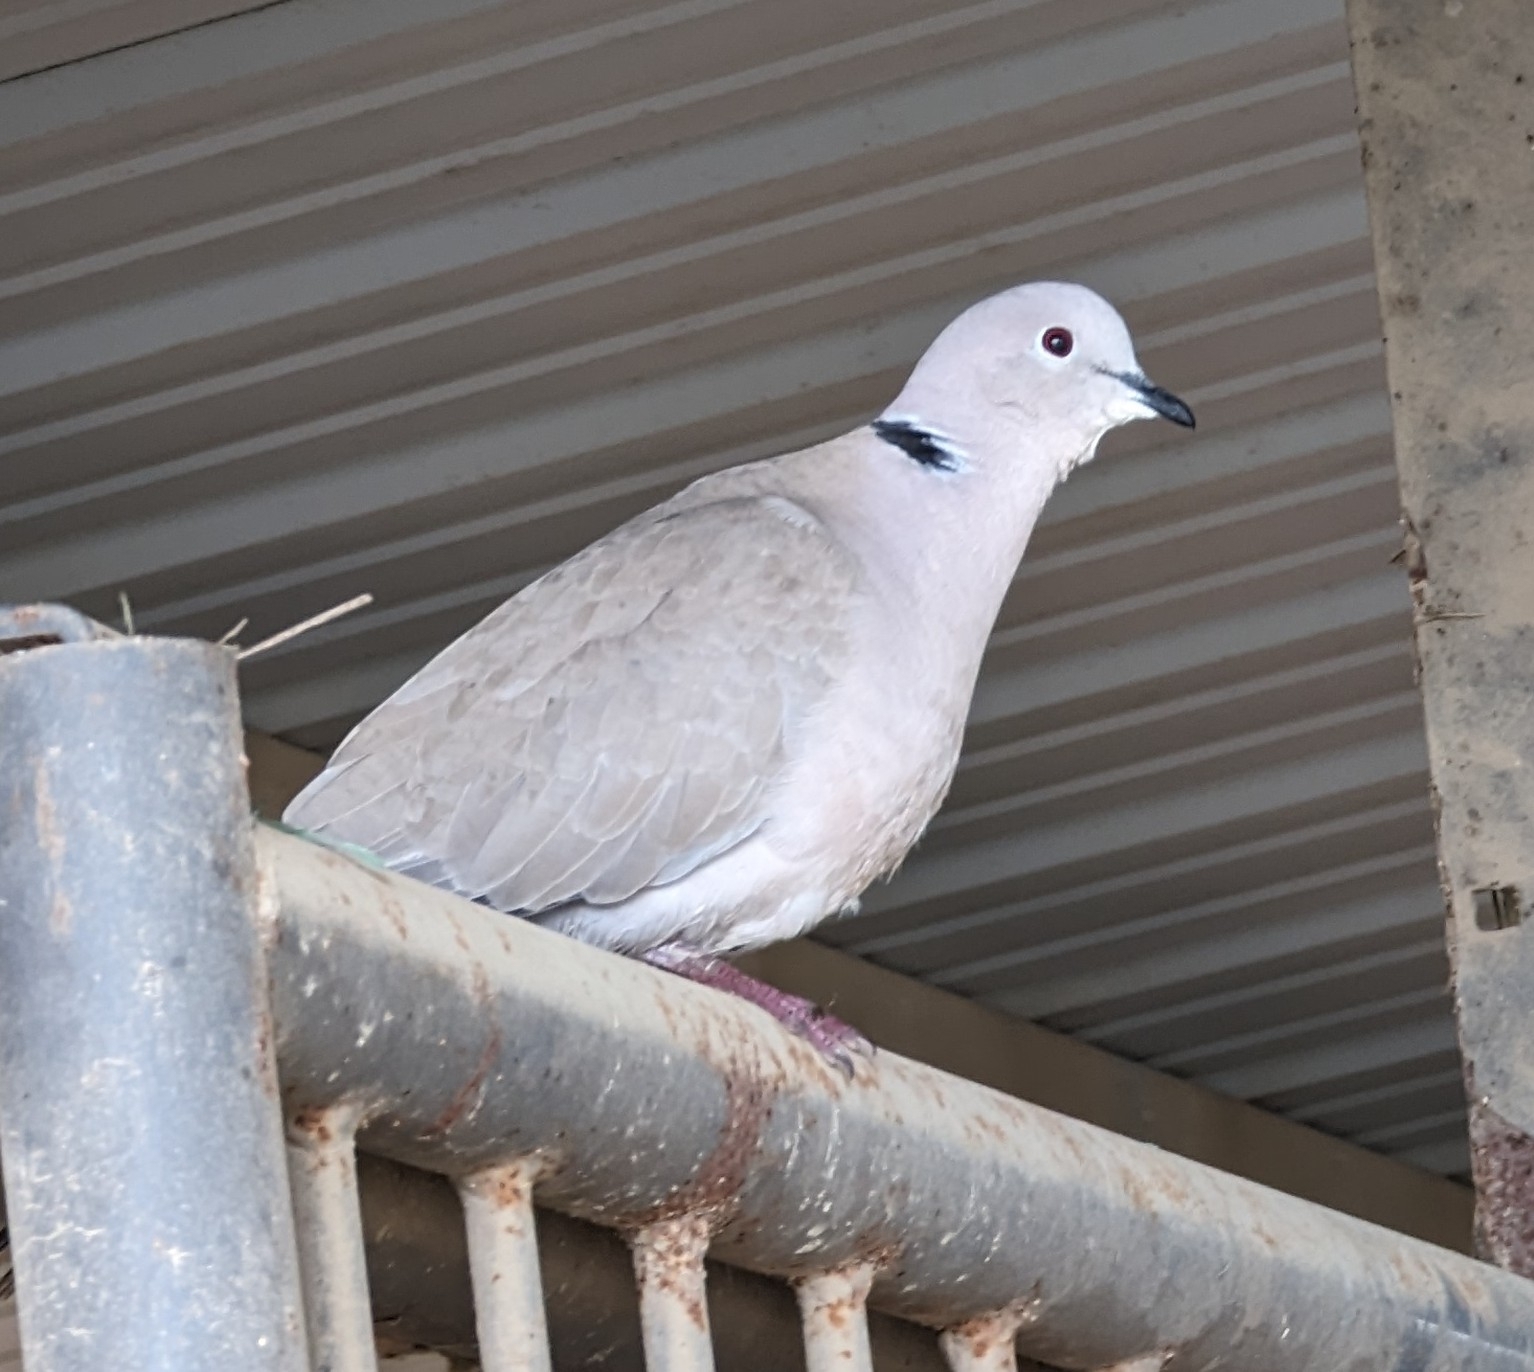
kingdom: Animalia
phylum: Chordata
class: Aves
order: Columbiformes
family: Columbidae
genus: Streptopelia
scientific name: Streptopelia decaocto
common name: Eurasian collared dove
